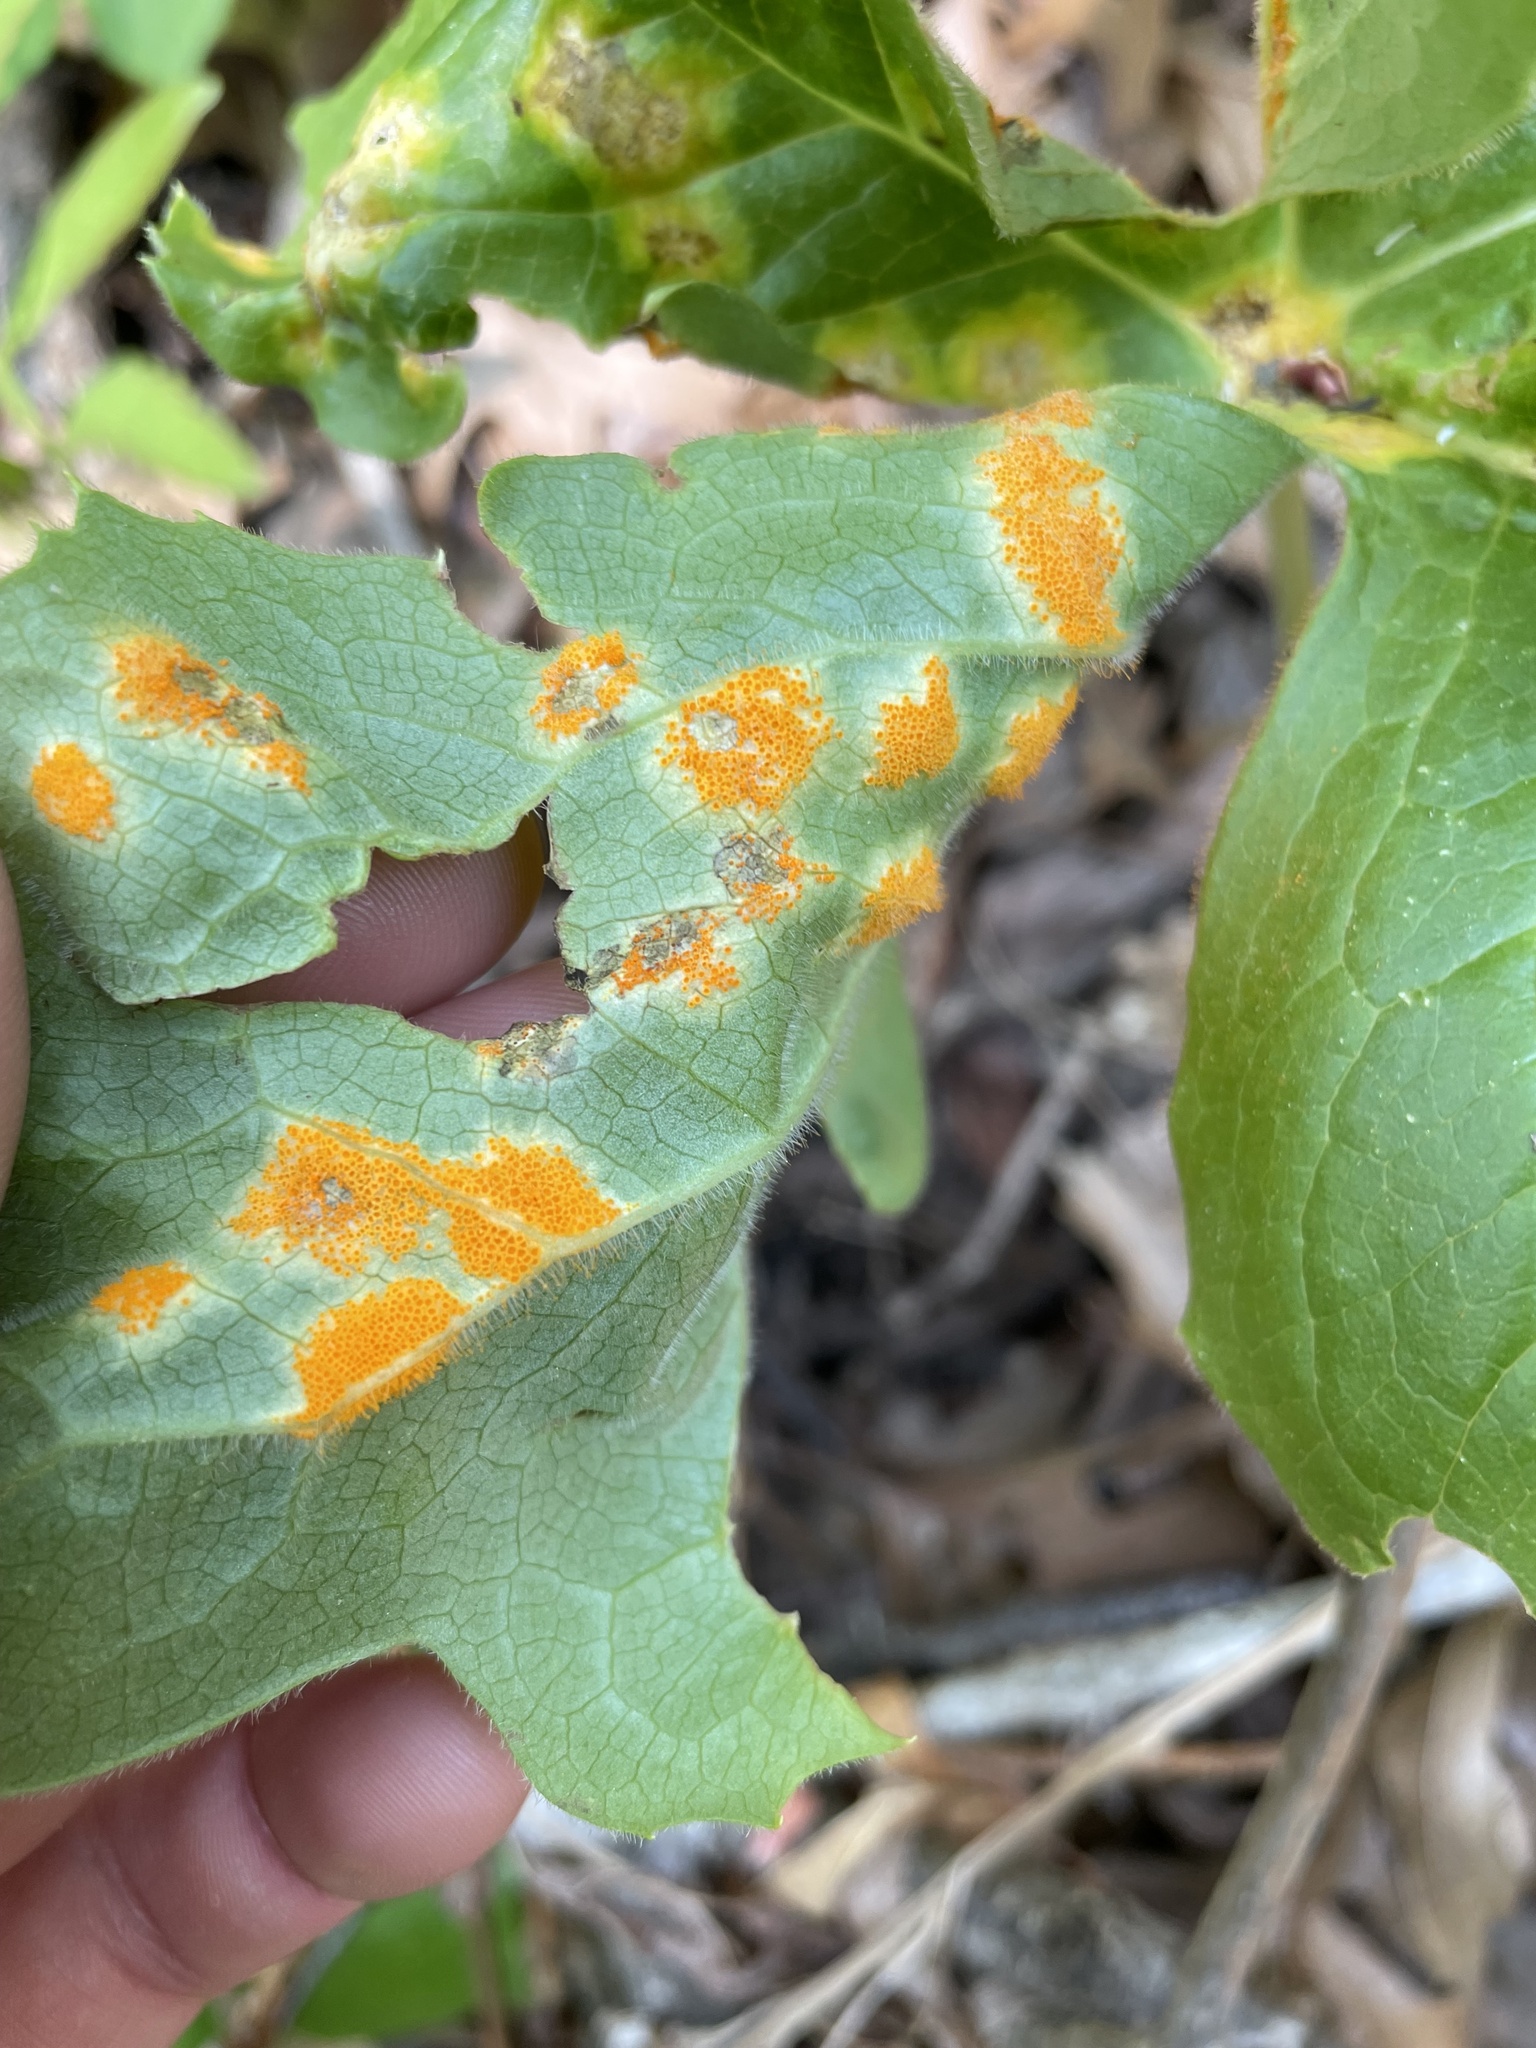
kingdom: Fungi
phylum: Basidiomycota
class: Pucciniomycetes
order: Pucciniales
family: Pucciniaceae
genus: Puccinia
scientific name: Puccinia podophylli
